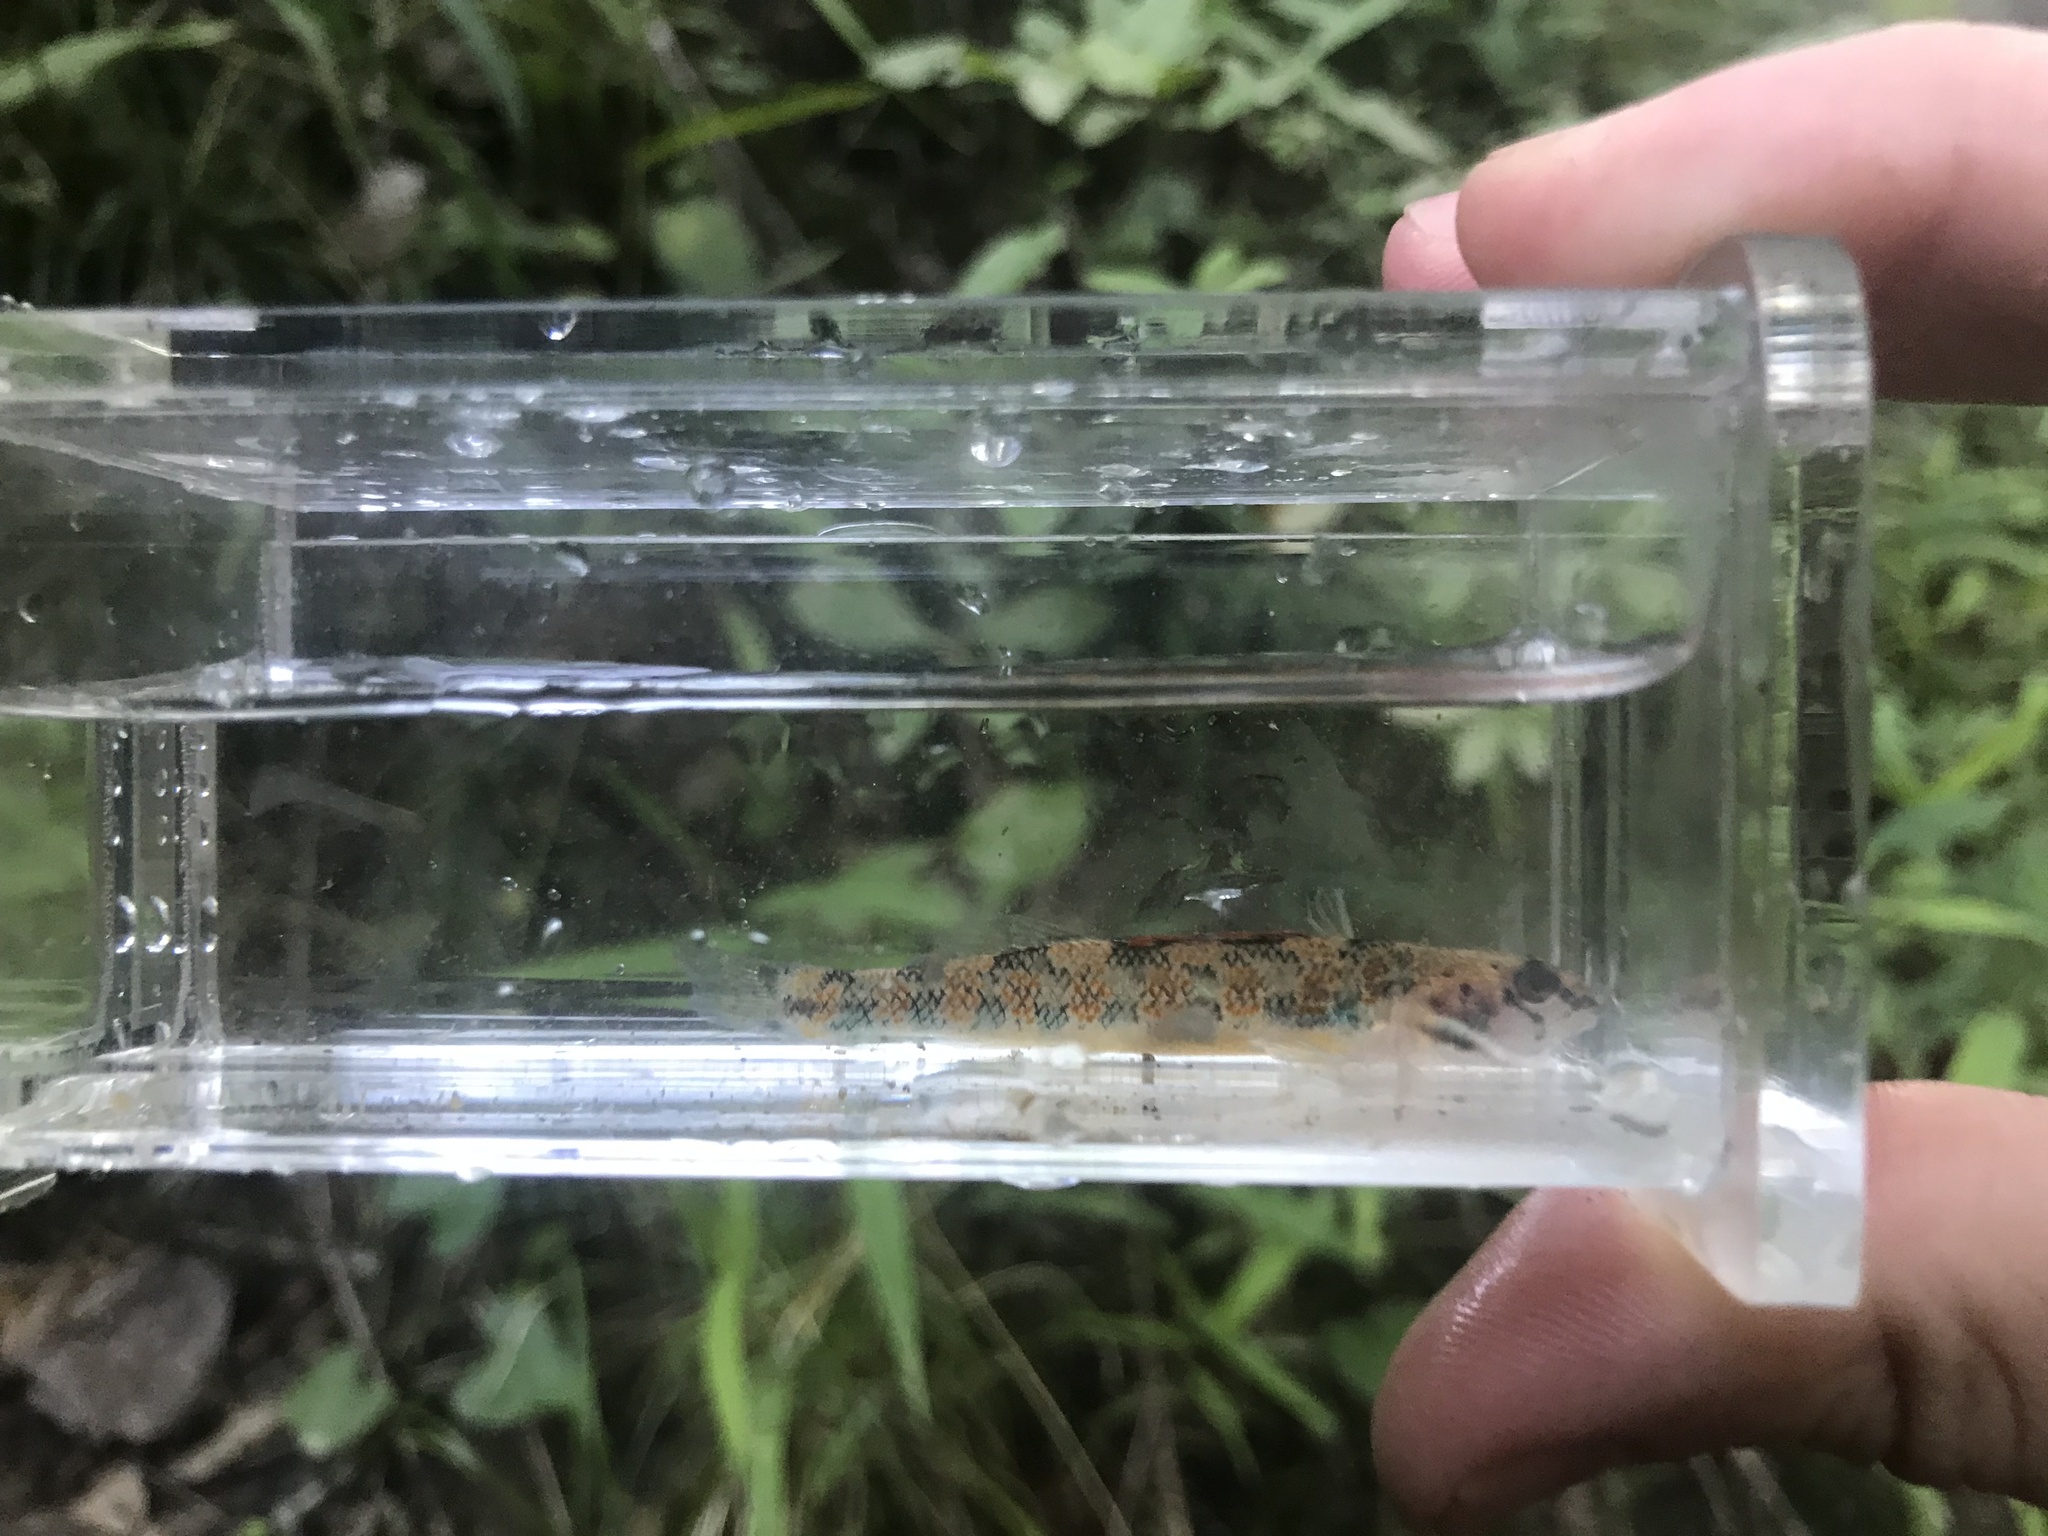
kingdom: Animalia
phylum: Chordata
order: Perciformes
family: Percidae
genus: Etheostoma
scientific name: Etheostoma stigmaeum
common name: Speckled darter
